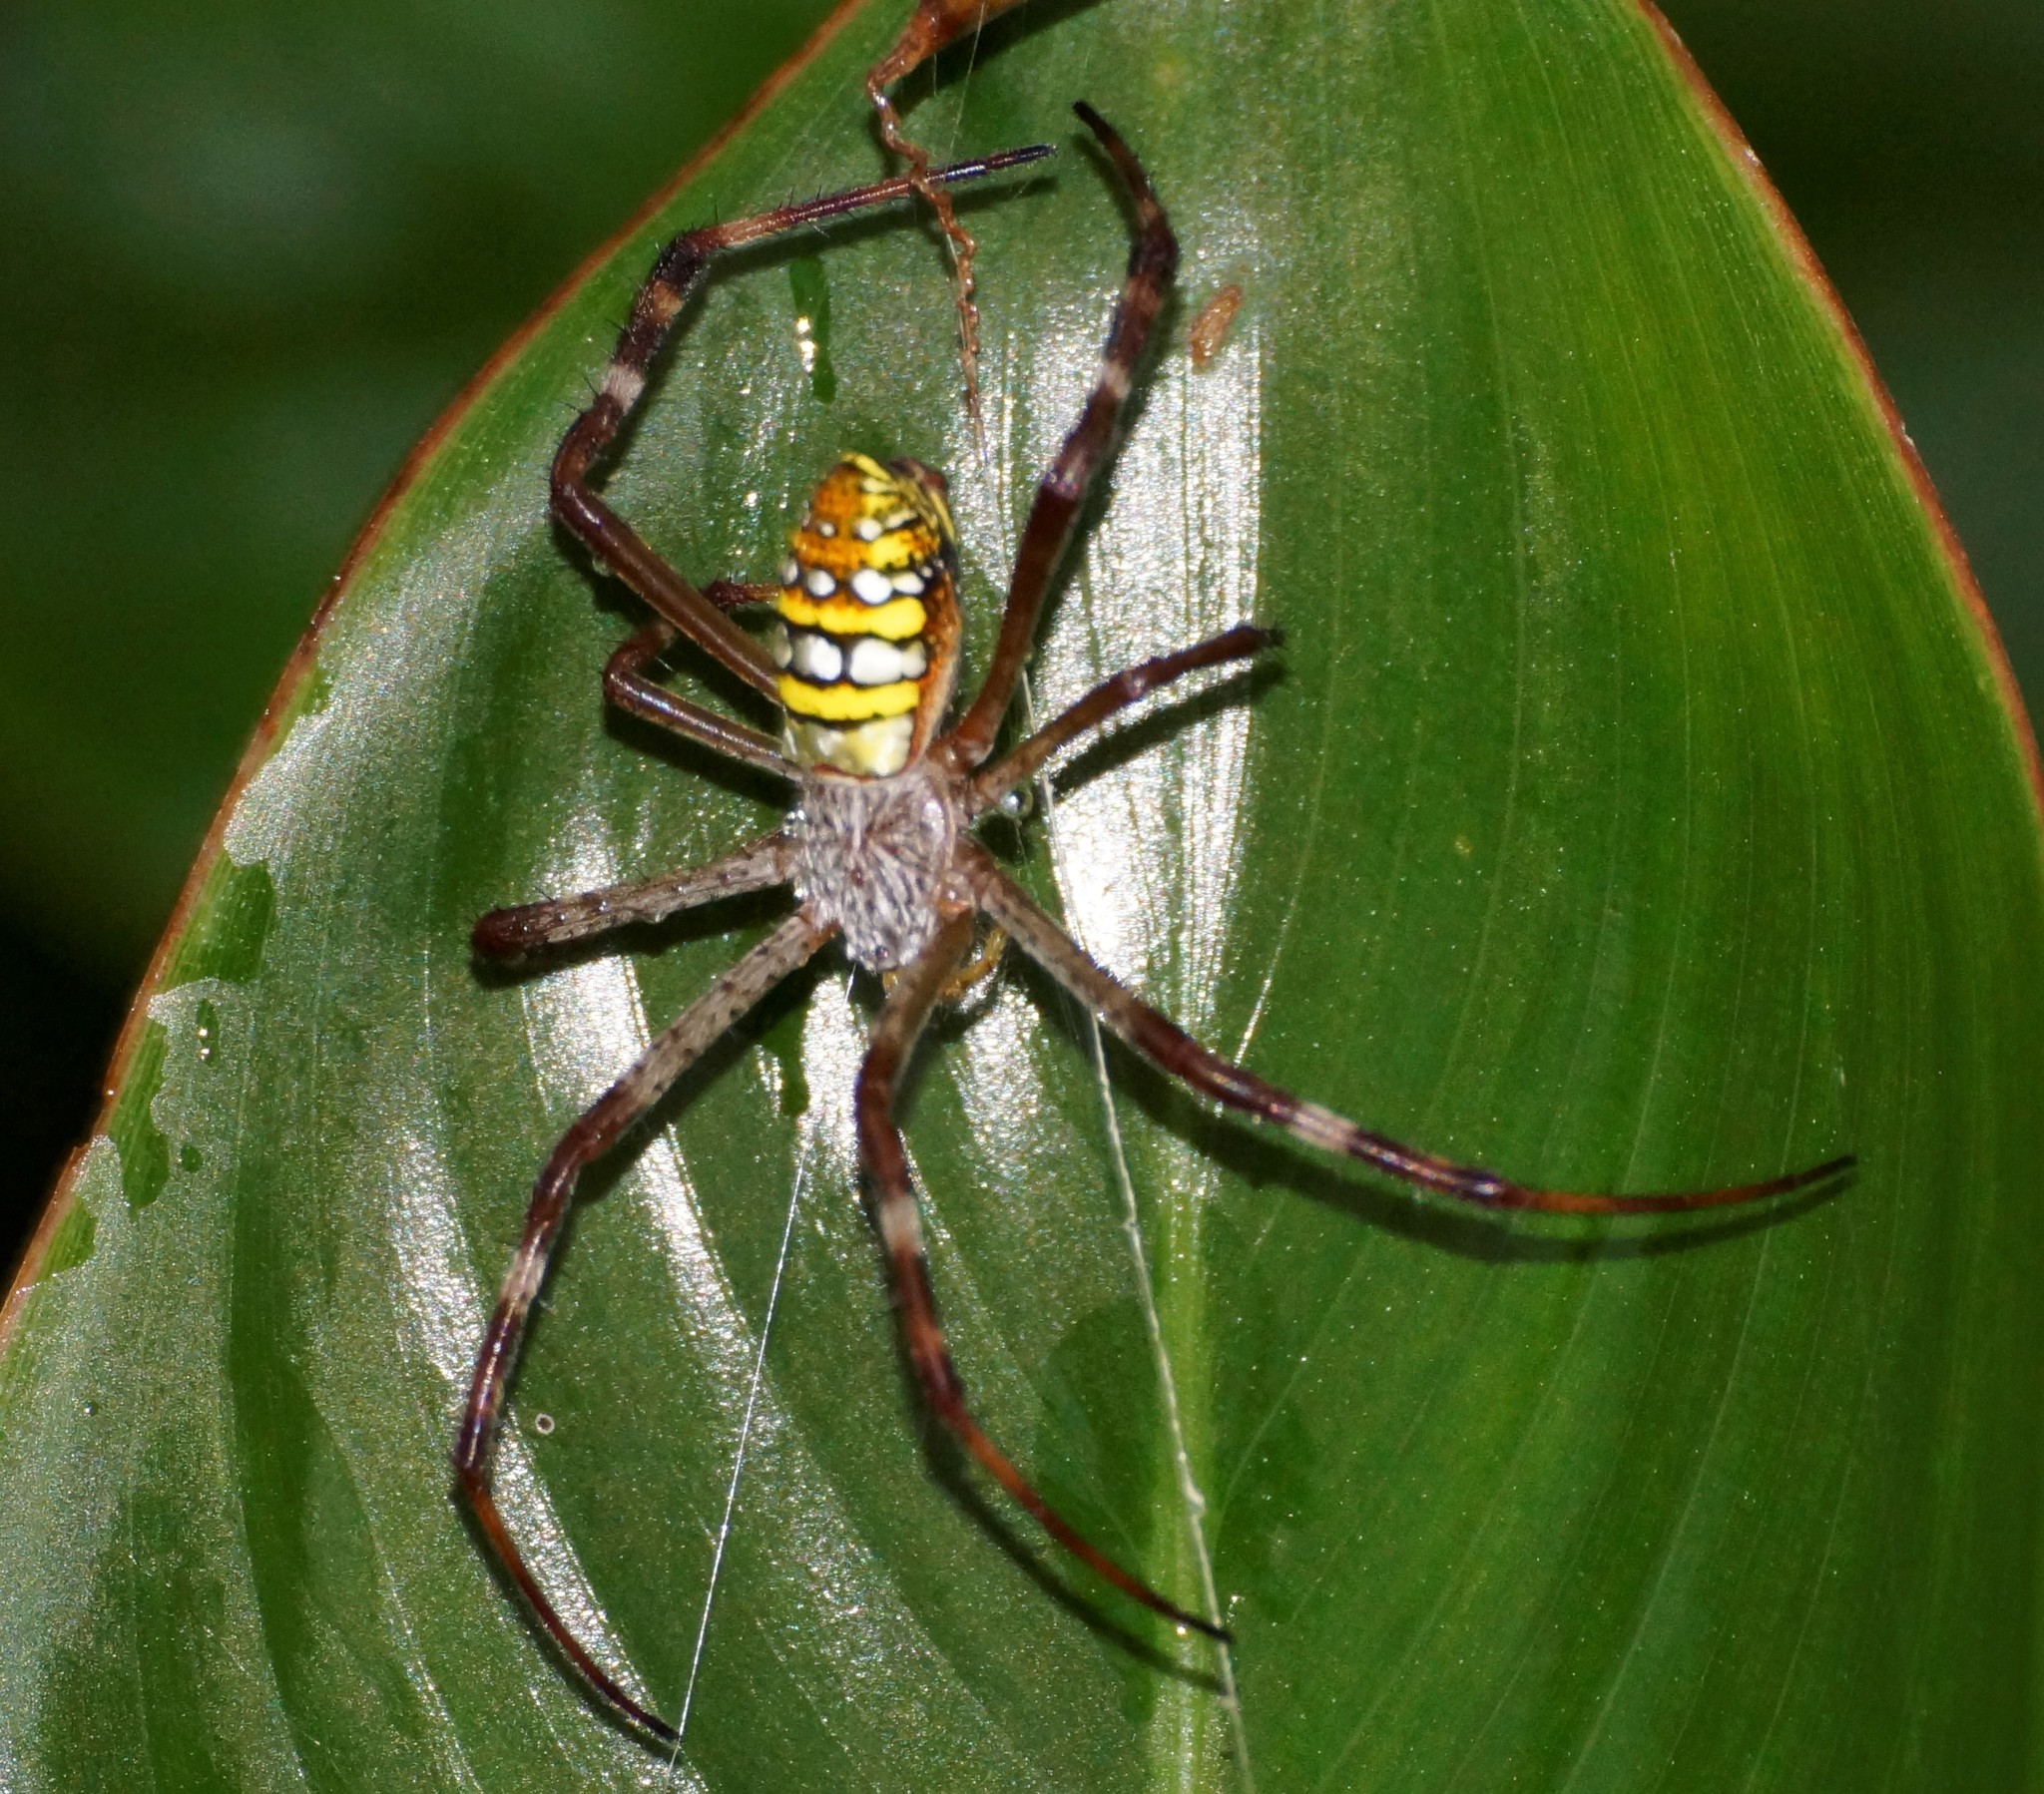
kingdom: Animalia
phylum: Arthropoda
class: Arachnida
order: Araneae
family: Araneidae
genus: Argiope
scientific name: Argiope picta
